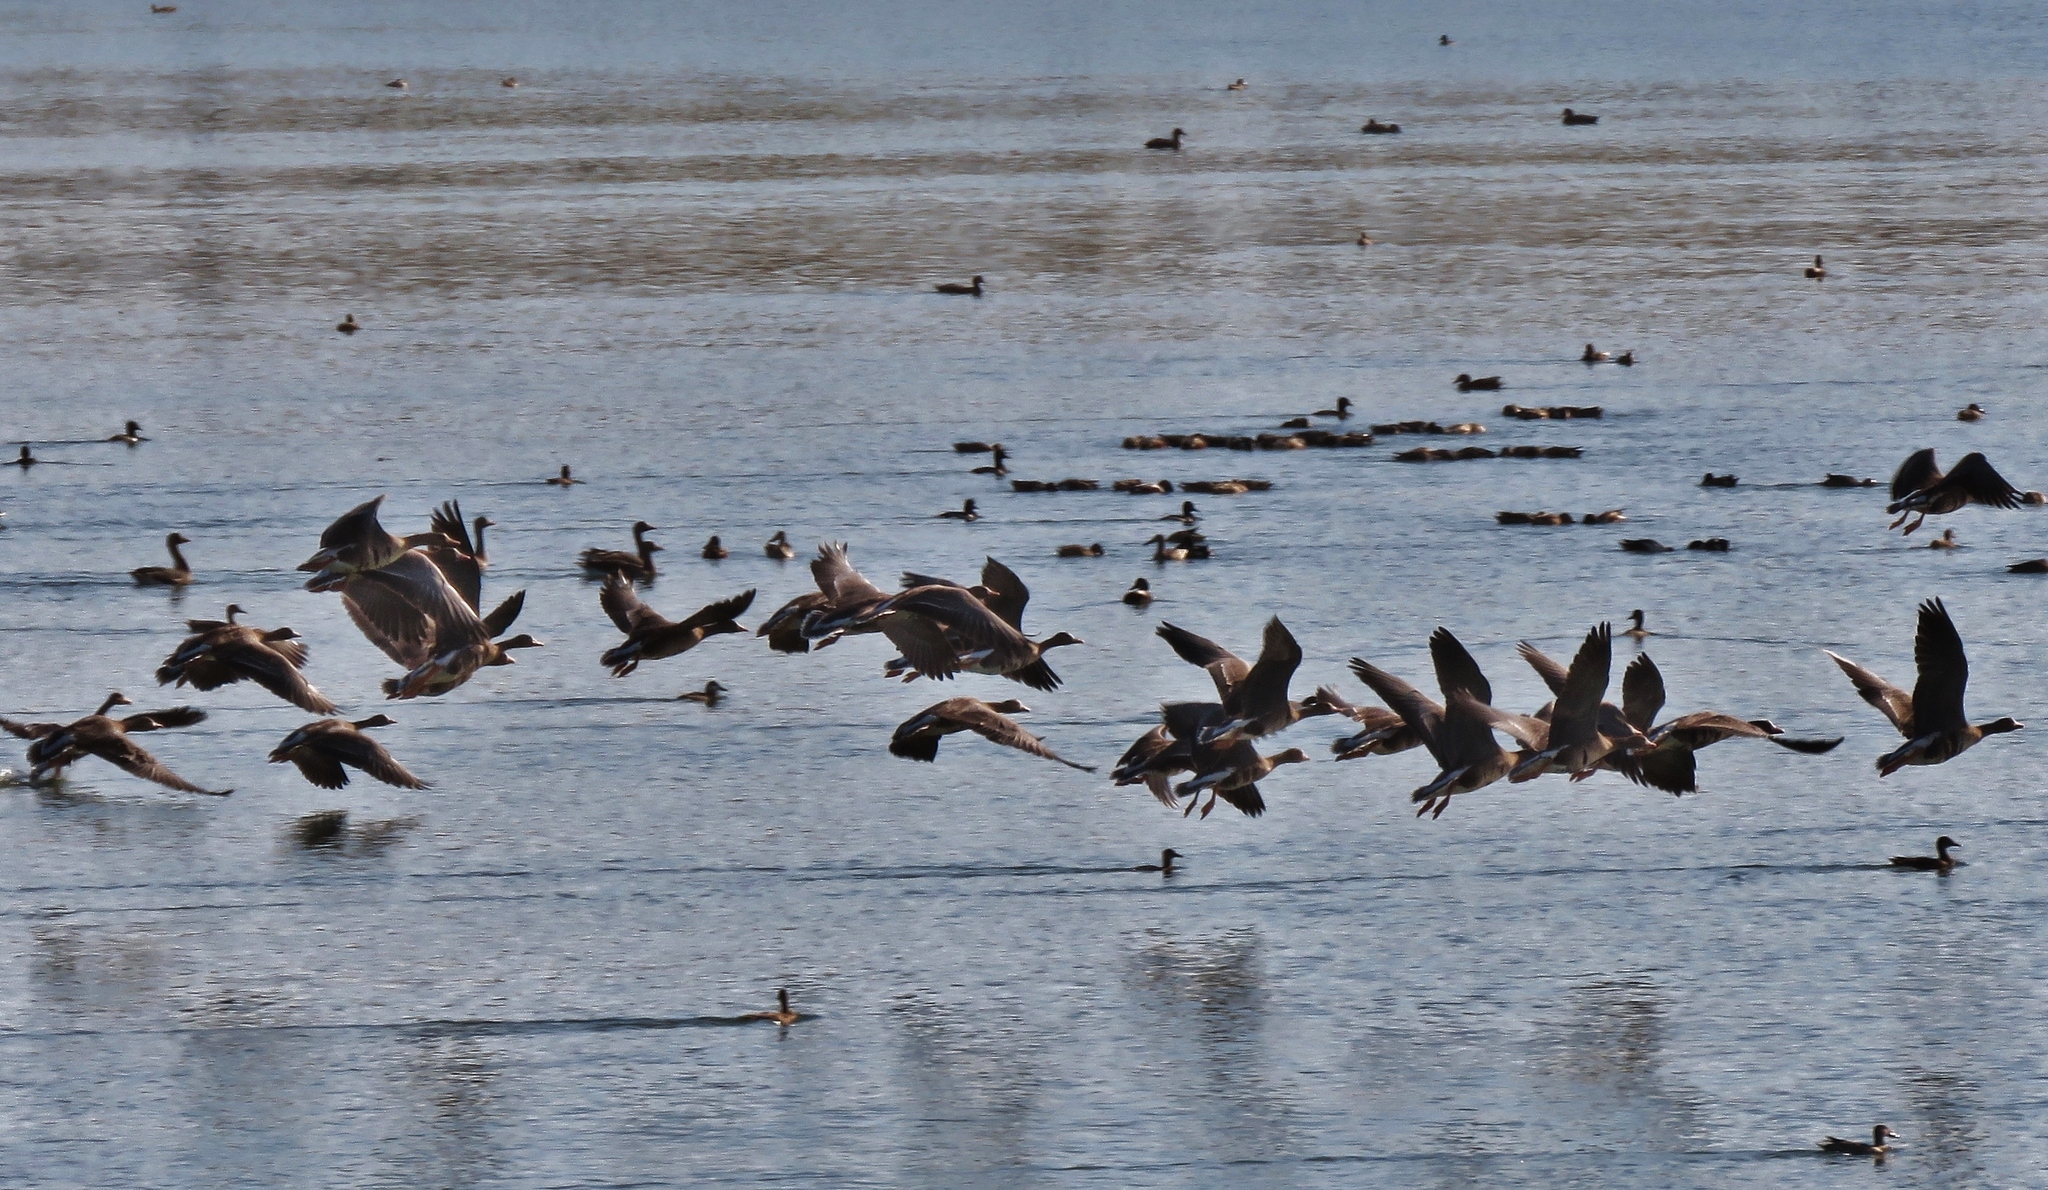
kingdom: Animalia
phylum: Chordata
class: Aves
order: Anseriformes
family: Anatidae
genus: Anser
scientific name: Anser albifrons
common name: Greater white-fronted goose
